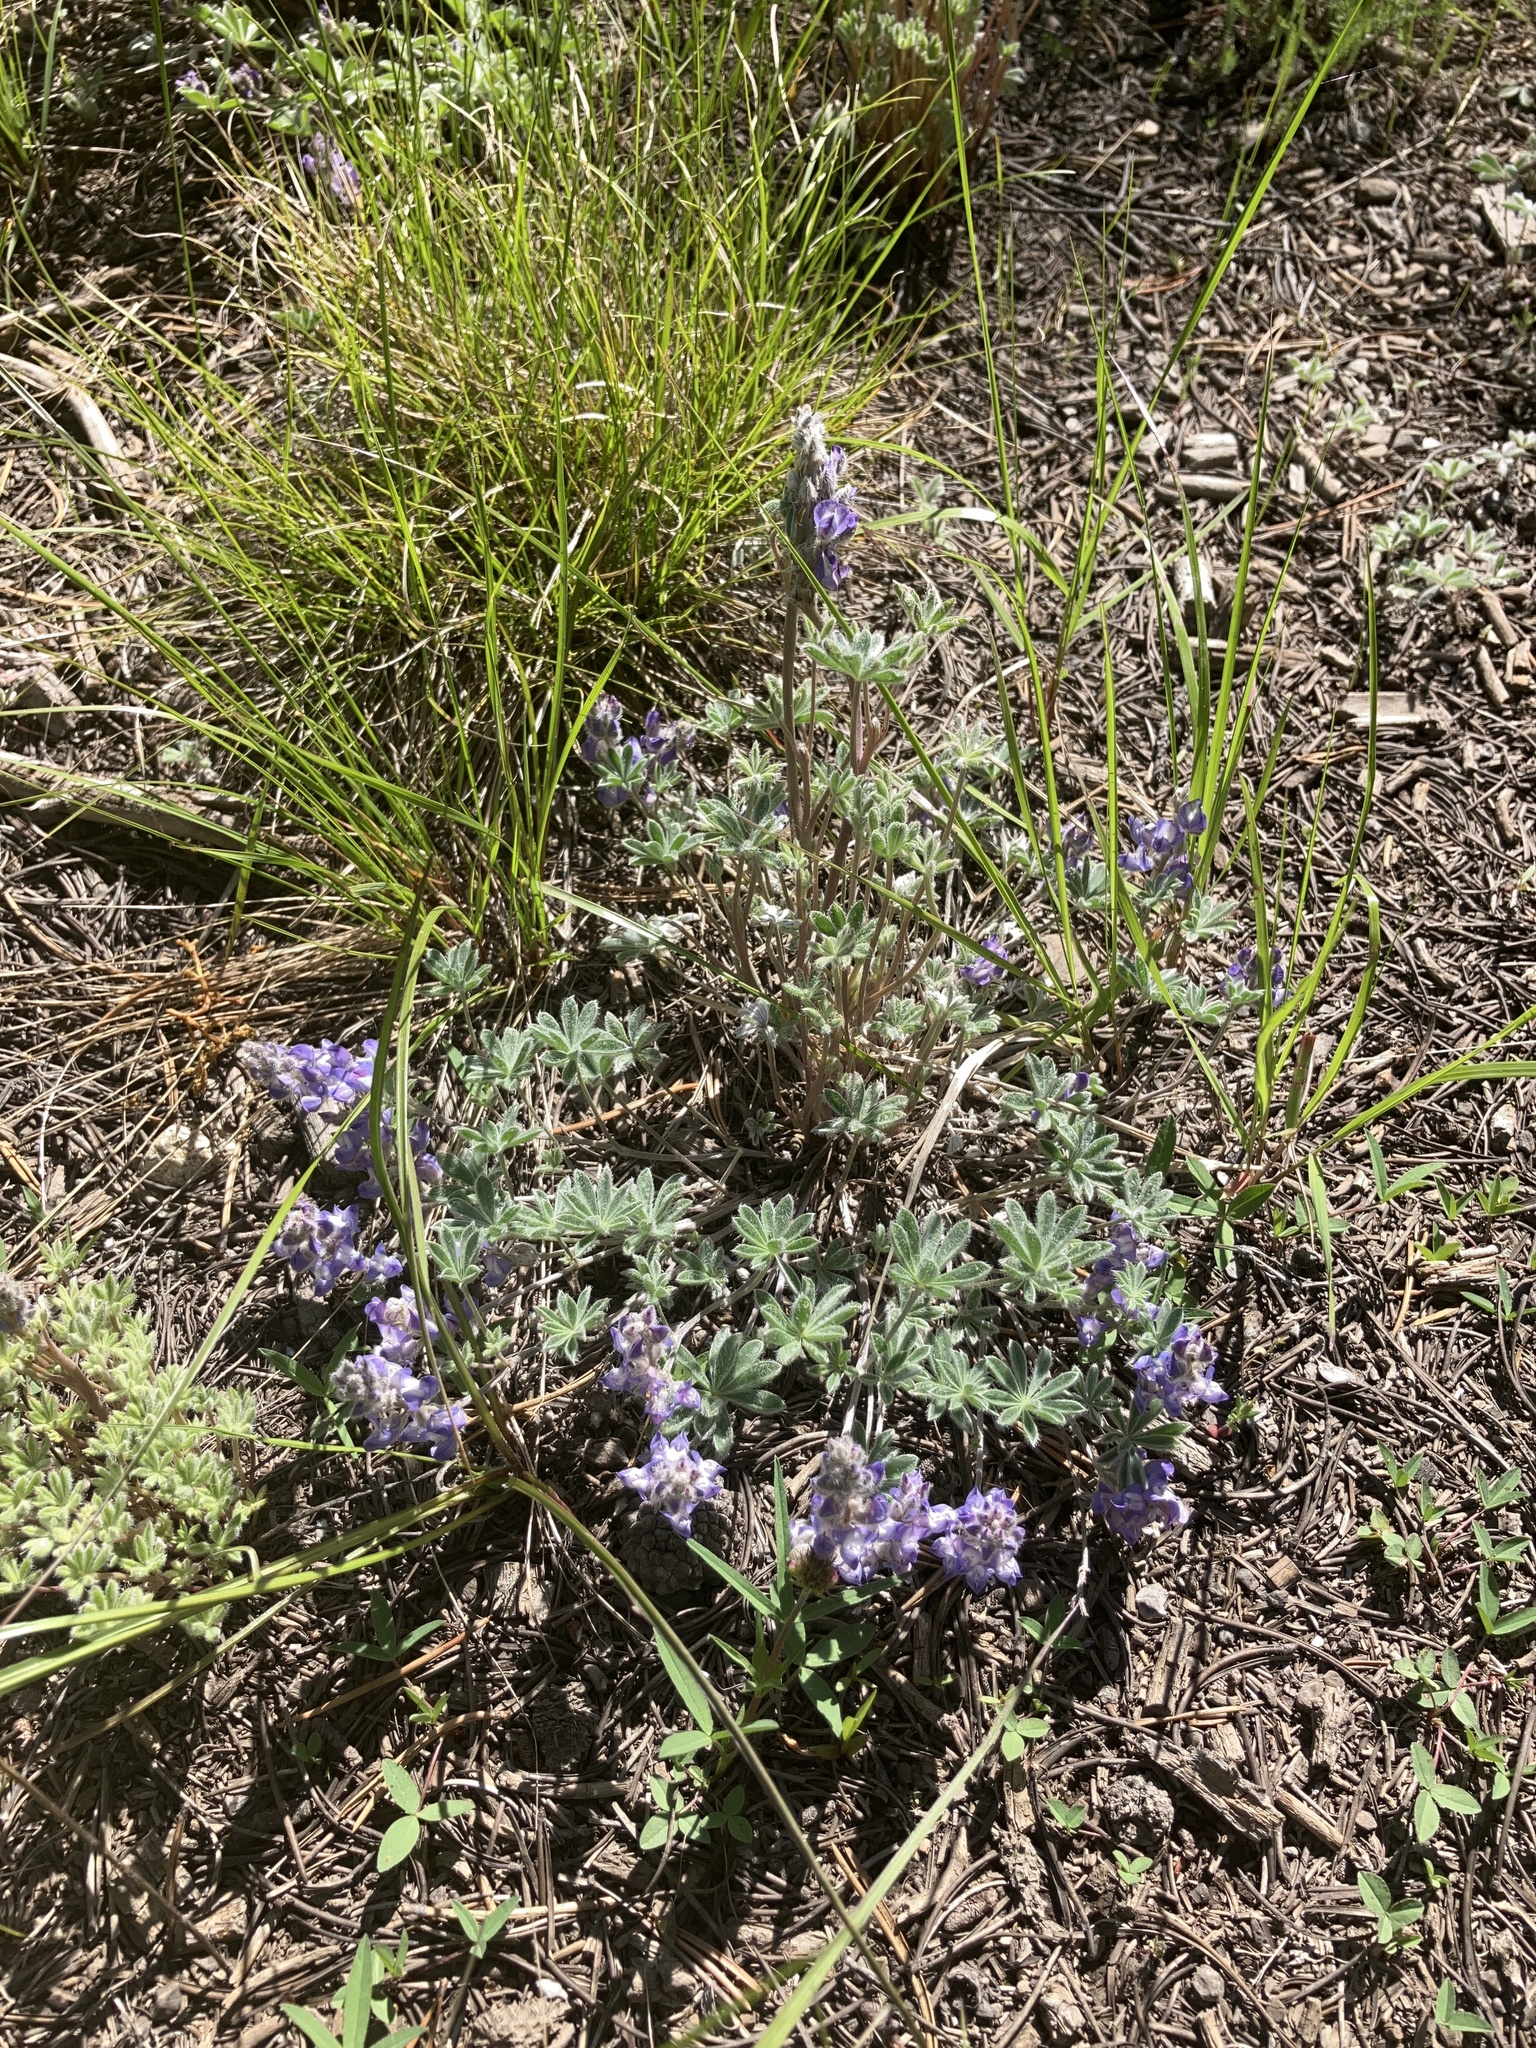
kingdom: Plantae
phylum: Tracheophyta
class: Magnoliopsida
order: Fabales
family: Fabaceae
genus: Lupinus
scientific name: Lupinus lepidus
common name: Prairie lupine
